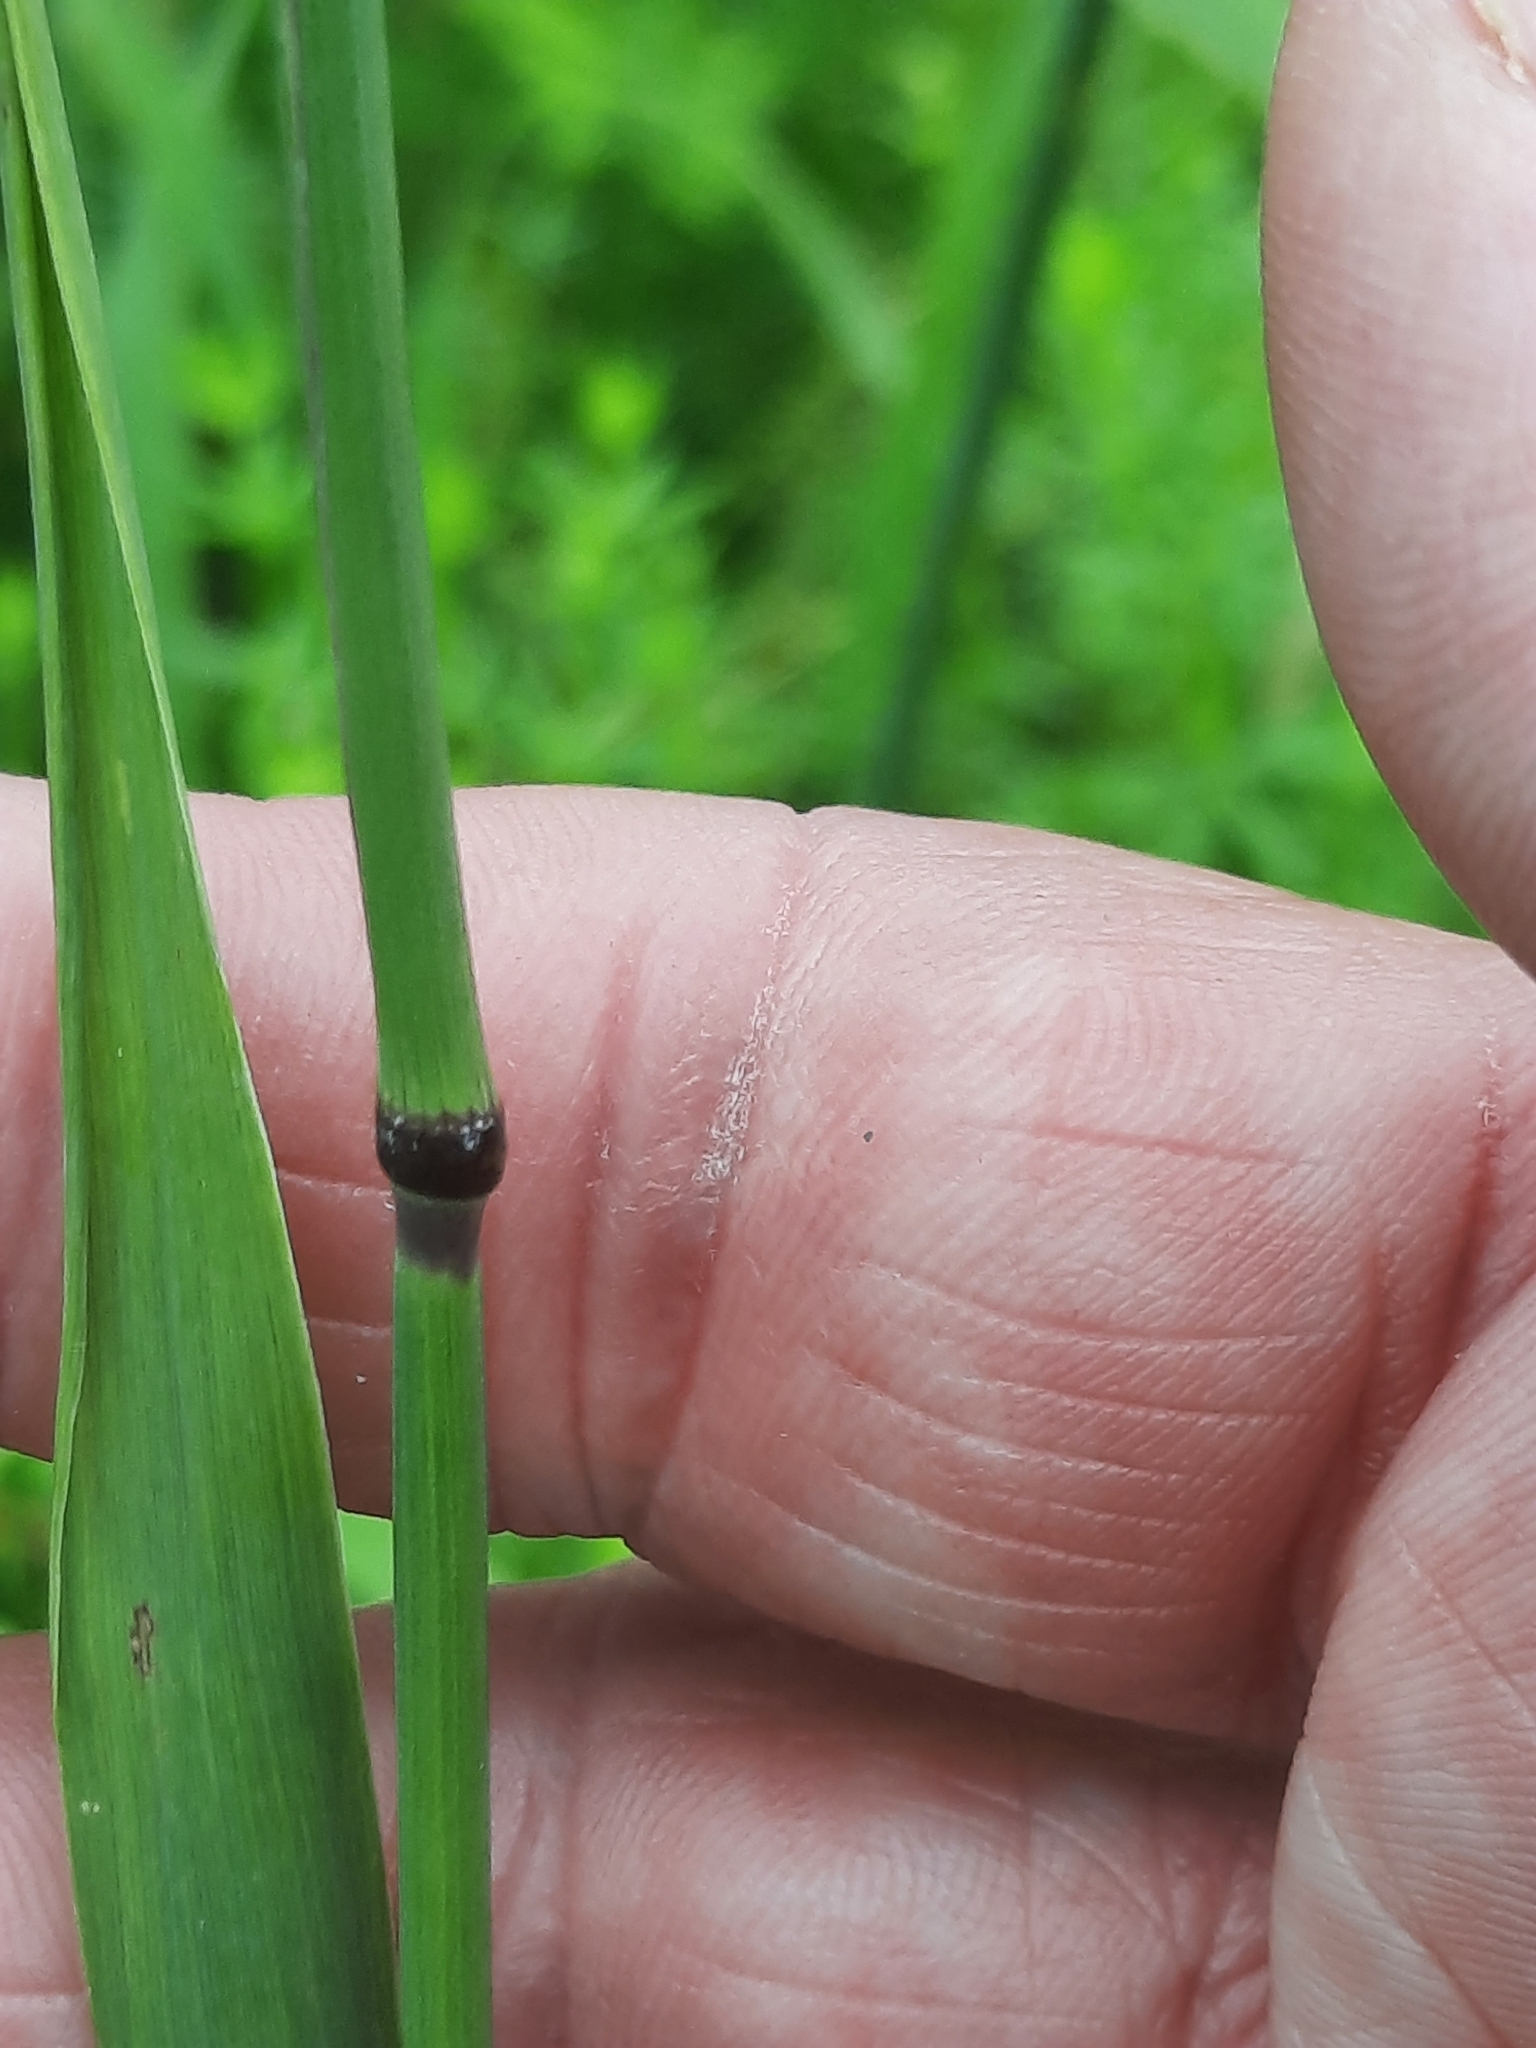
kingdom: Plantae
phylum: Tracheophyta
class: Liliopsida
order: Poales
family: Poaceae
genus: Phleum
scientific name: Phleum pratense
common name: Timothy grass
